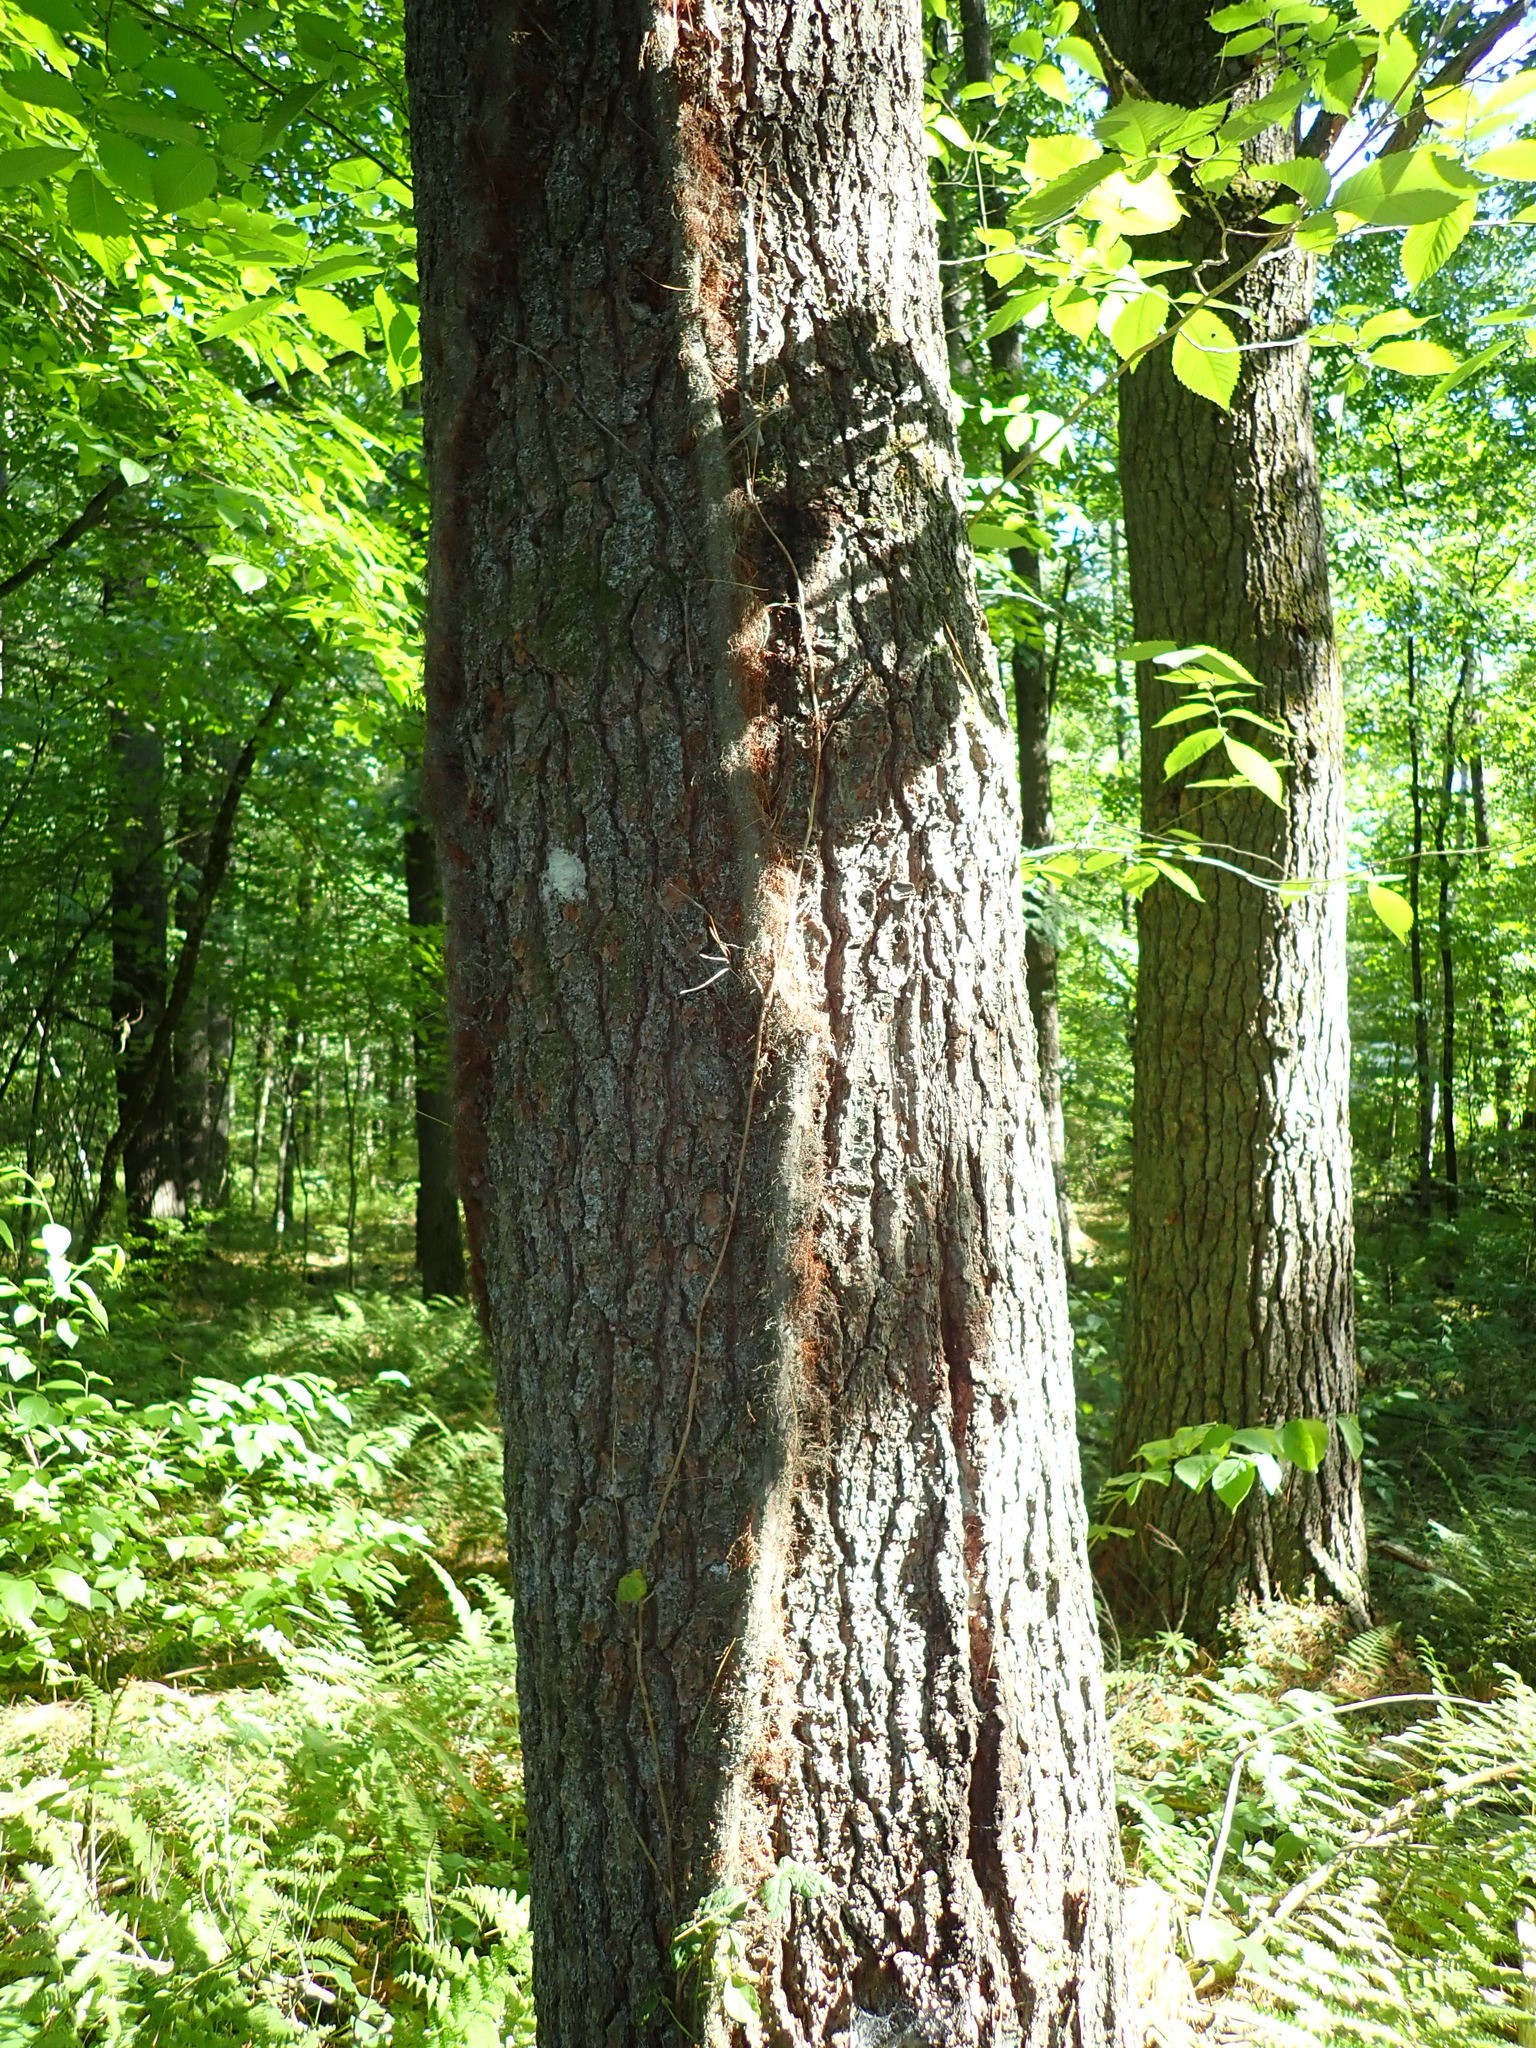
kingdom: Plantae
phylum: Tracheophyta
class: Magnoliopsida
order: Sapindales
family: Anacardiaceae
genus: Toxicodendron
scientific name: Toxicodendron radicans
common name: Poison ivy
